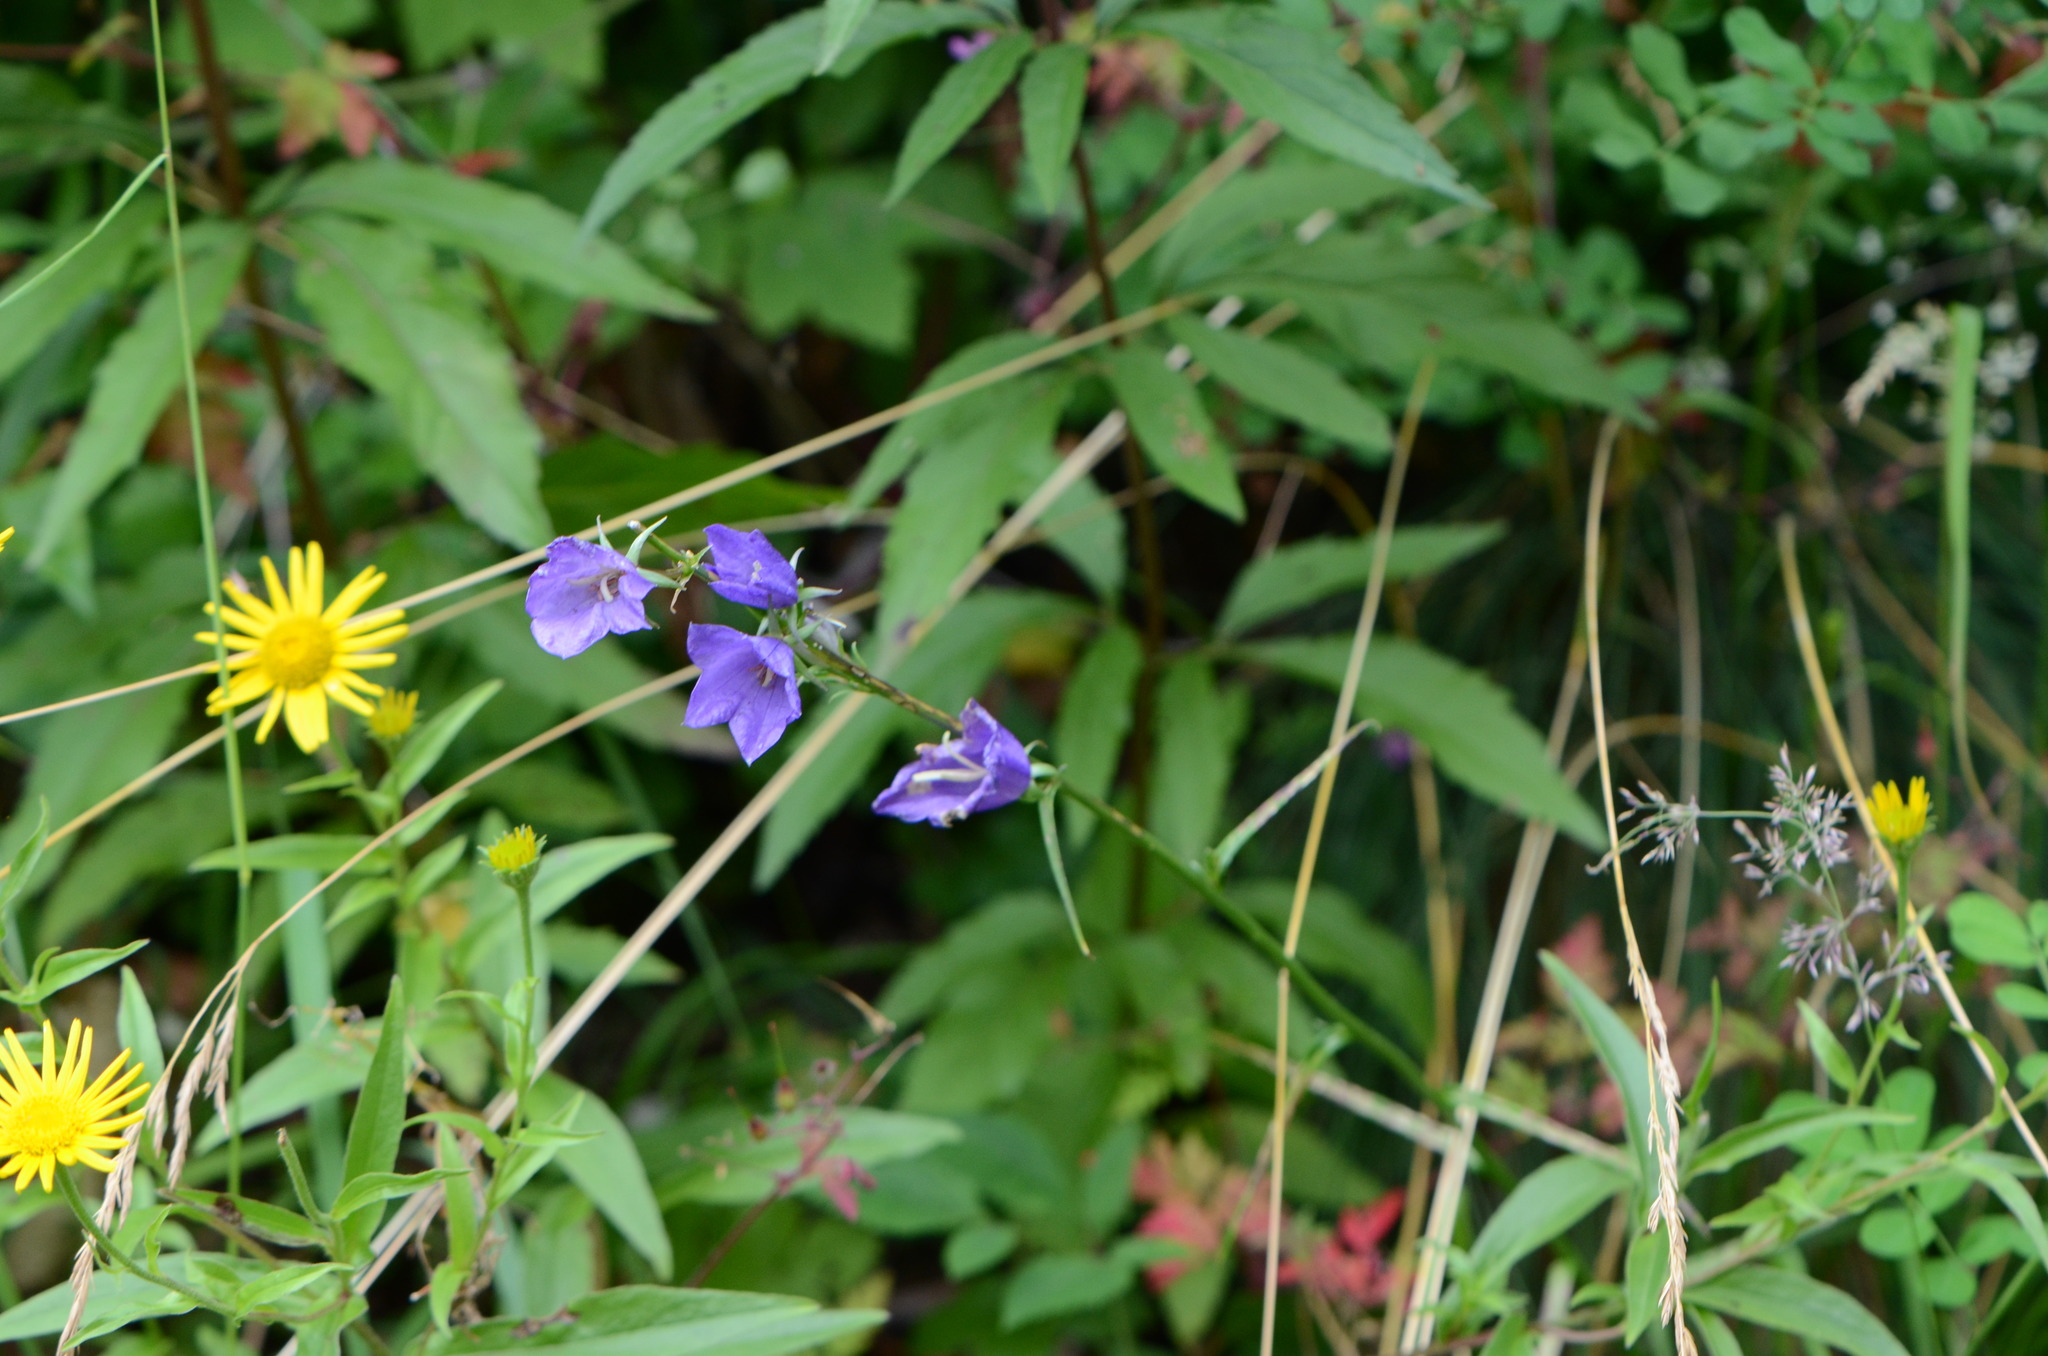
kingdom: Plantae
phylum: Tracheophyta
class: Magnoliopsida
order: Asterales
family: Campanulaceae
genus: Campanula
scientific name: Campanula persicifolia
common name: Peach-leaved bellflower
